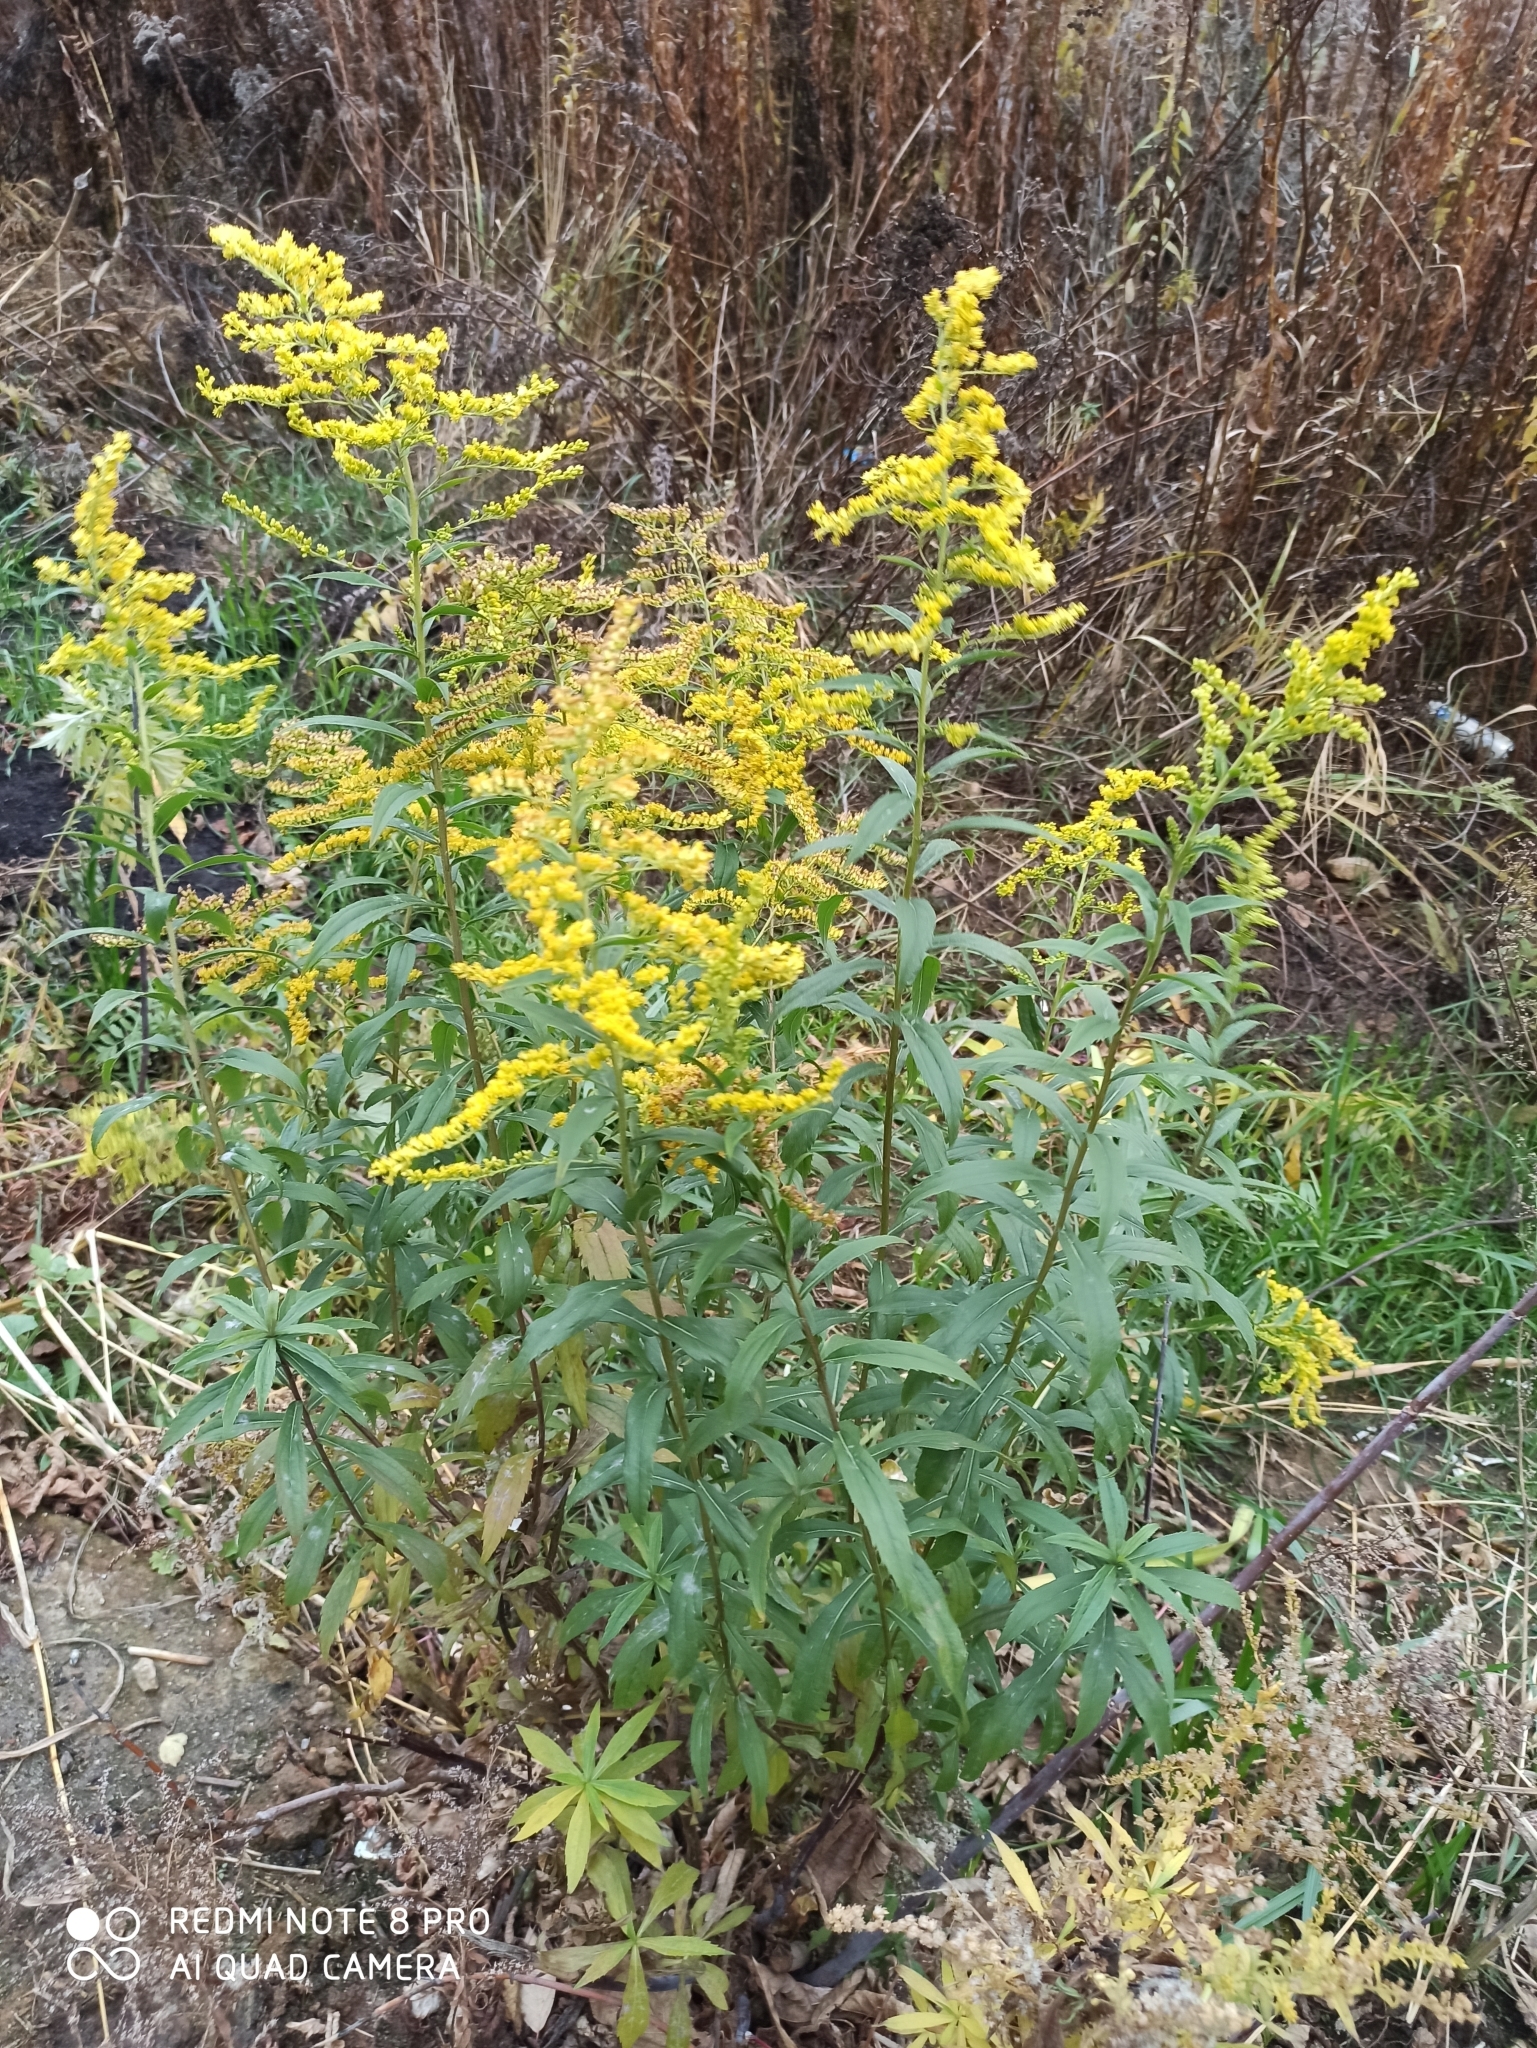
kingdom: Plantae
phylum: Tracheophyta
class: Magnoliopsida
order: Asterales
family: Asteraceae
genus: Solidago
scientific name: Solidago canadensis
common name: Canada goldenrod
